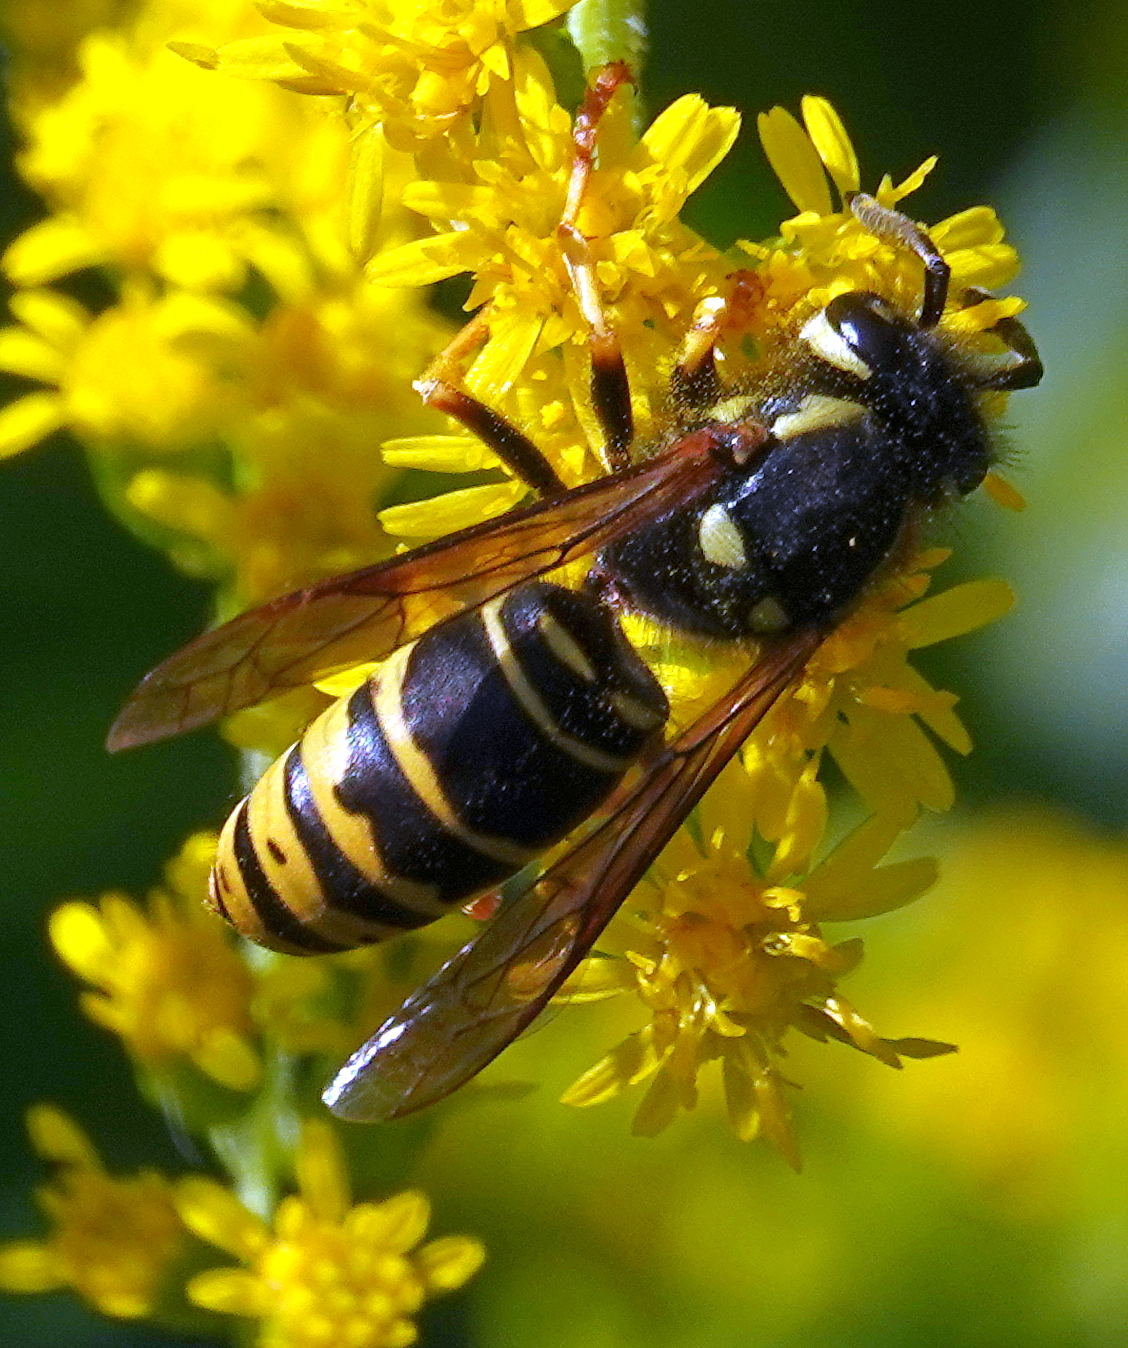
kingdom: Animalia
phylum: Arthropoda
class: Insecta
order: Hymenoptera
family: Vespidae
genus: Vespula
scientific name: Vespula vidua
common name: Widow yellowjacket
